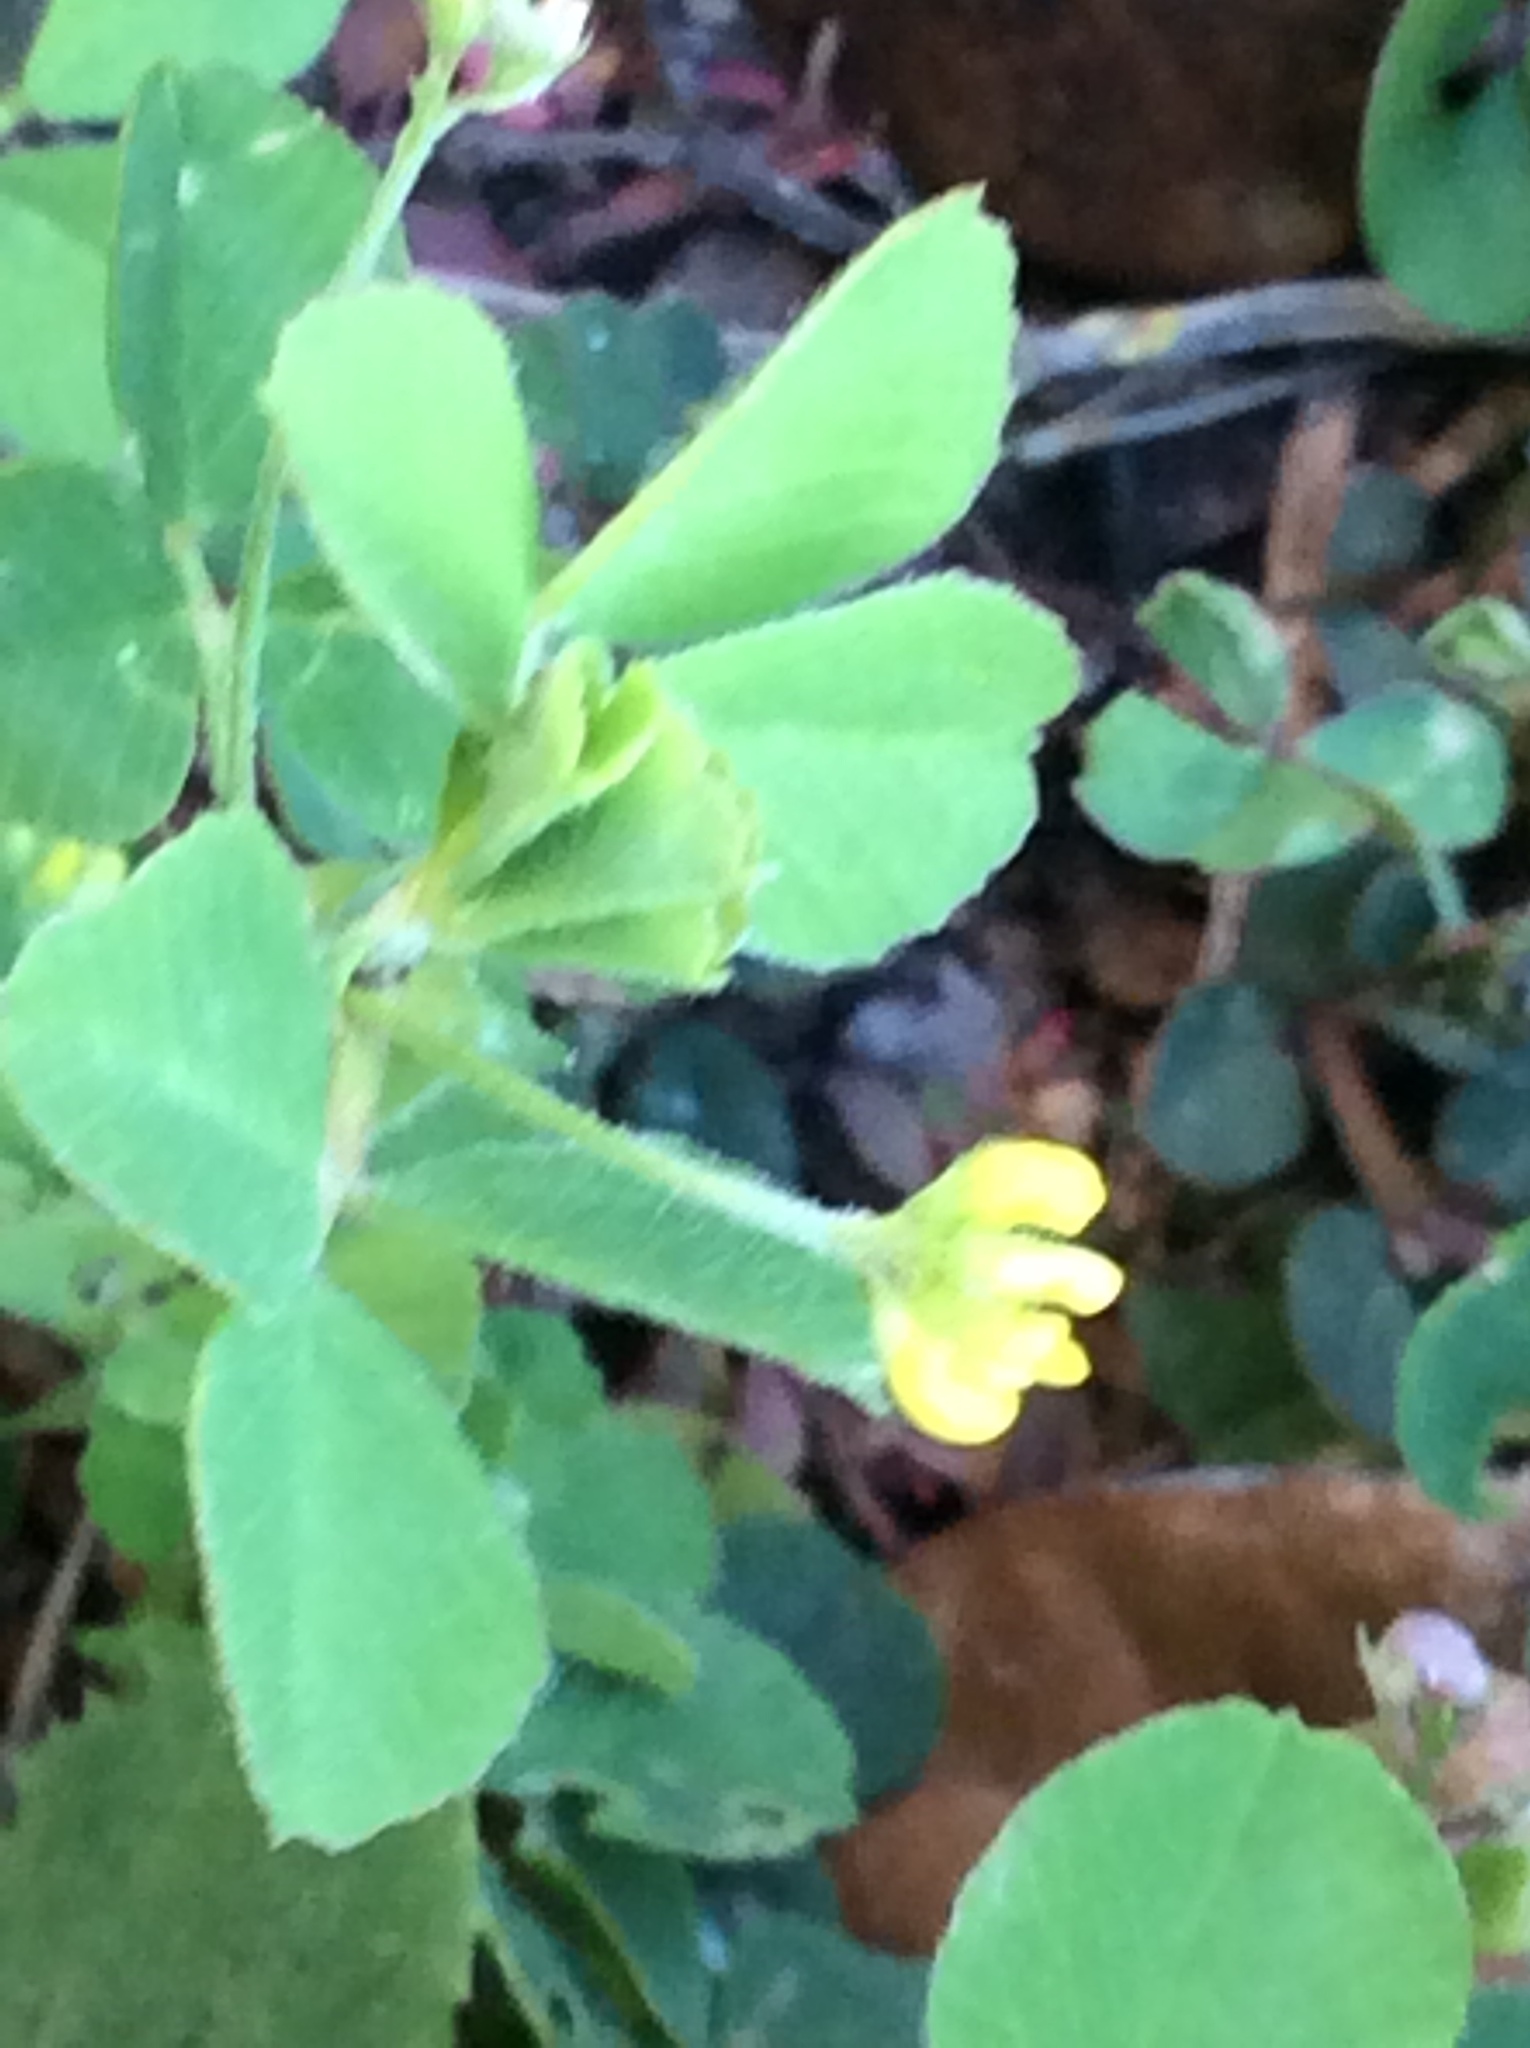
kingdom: Plantae
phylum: Tracheophyta
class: Magnoliopsida
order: Fabales
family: Fabaceae
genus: Medicago
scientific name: Medicago lupulina
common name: Black medick
